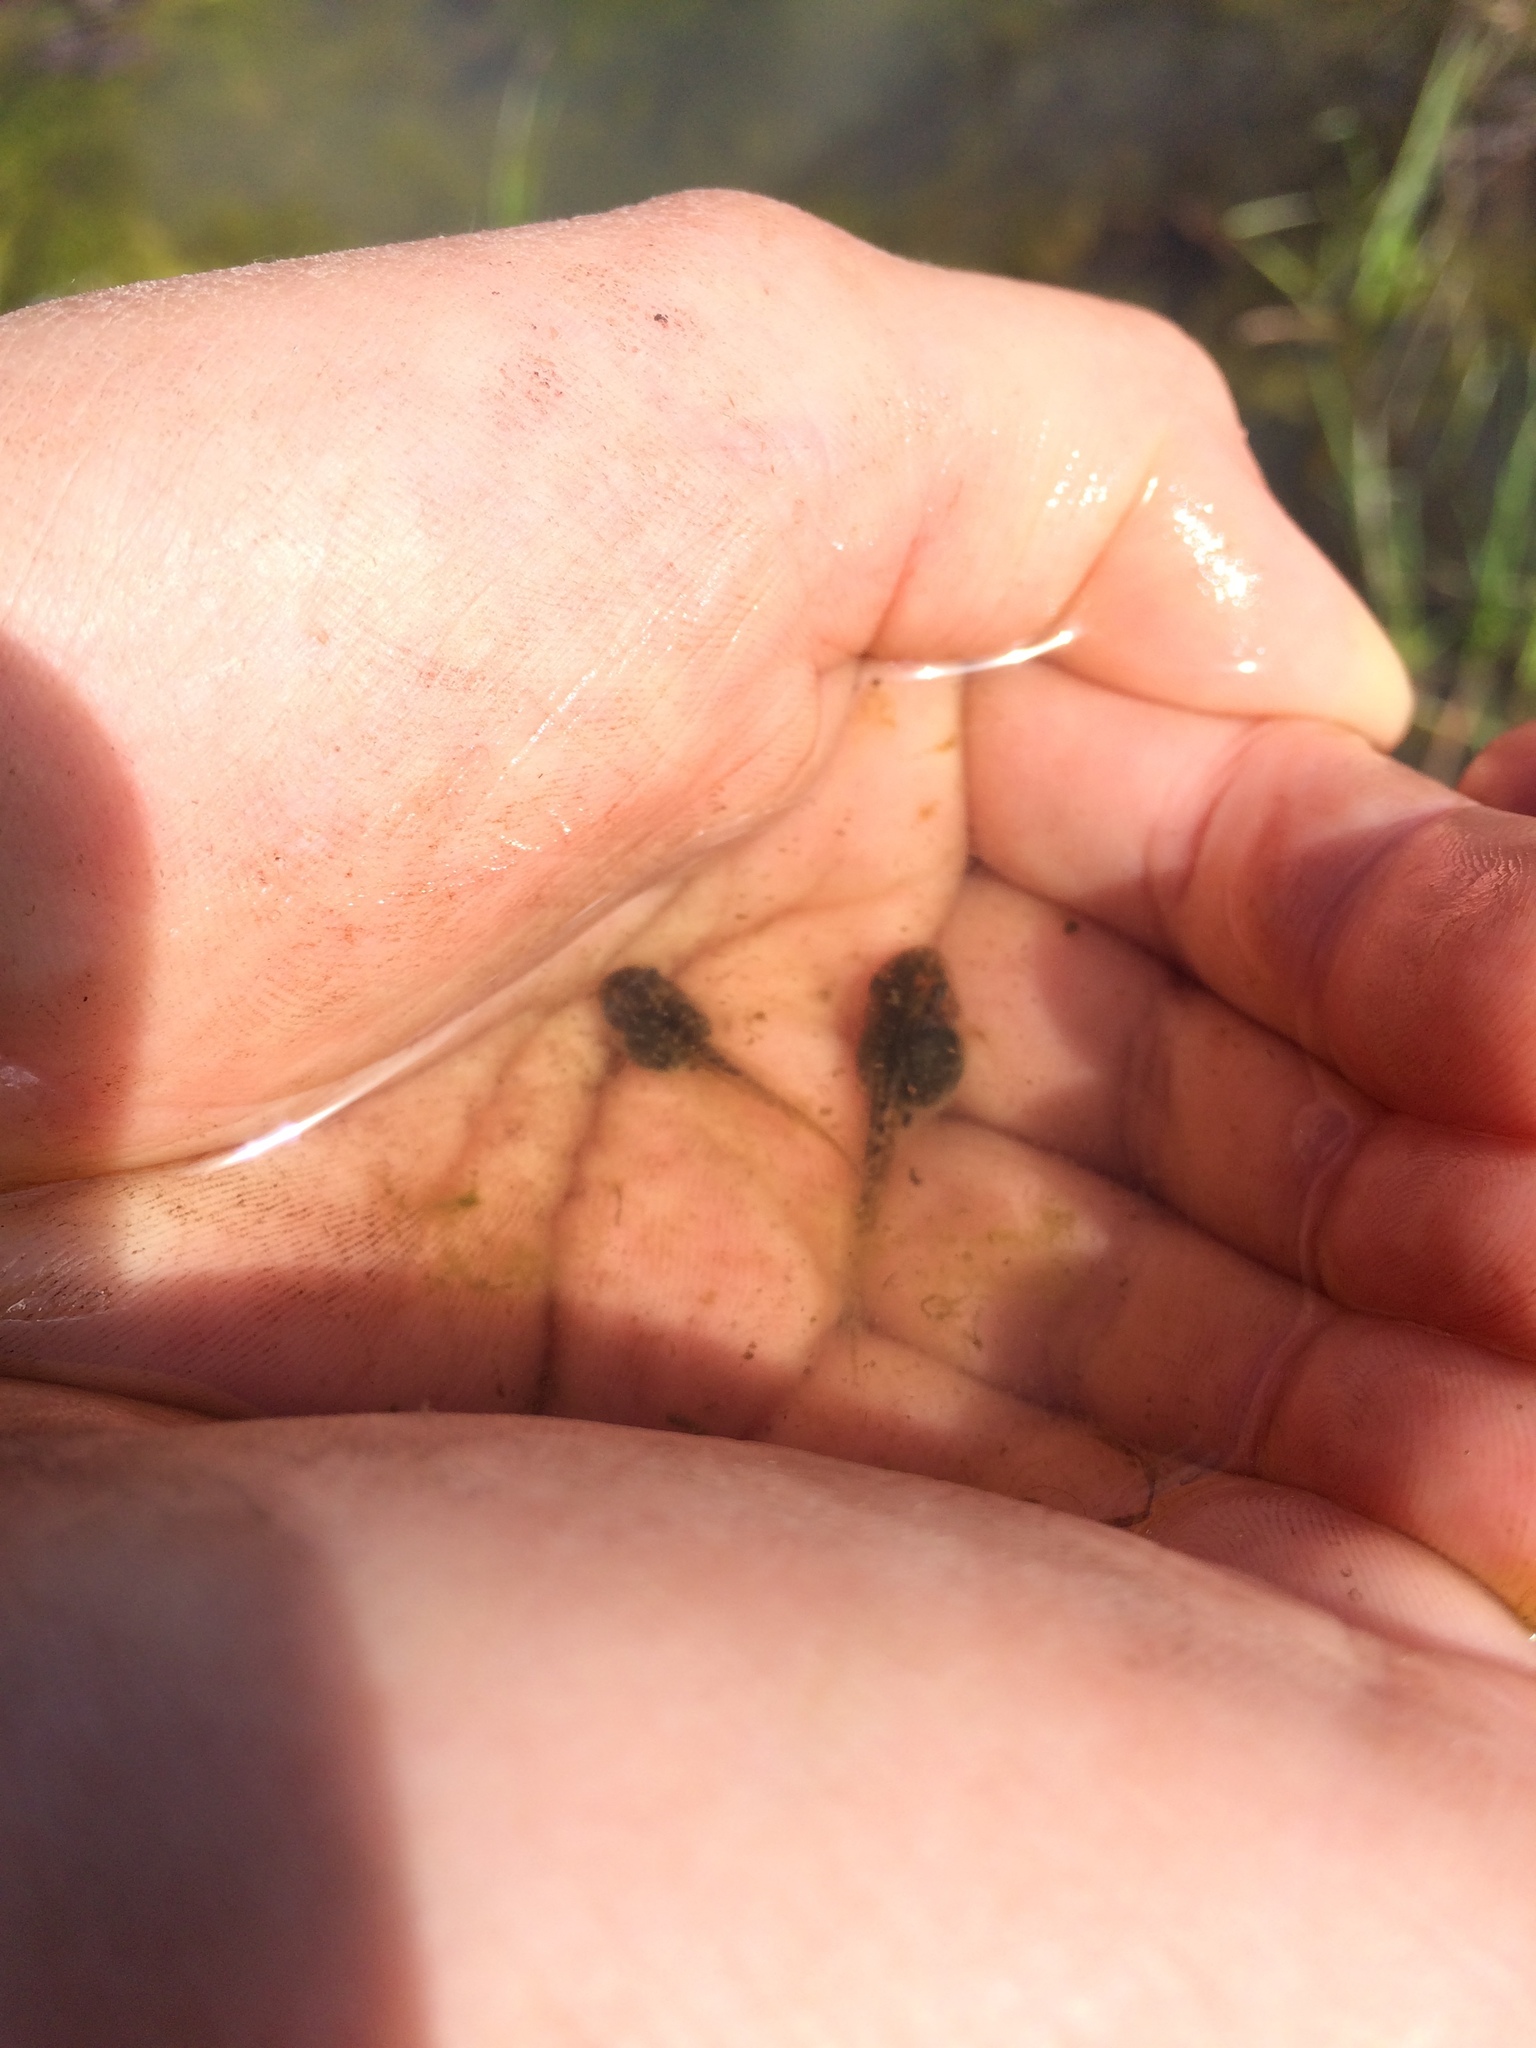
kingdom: Animalia
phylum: Chordata
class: Amphibia
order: Anura
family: Hylidae
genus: Pseudacris
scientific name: Pseudacris regilla
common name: Pacific chorus frog
